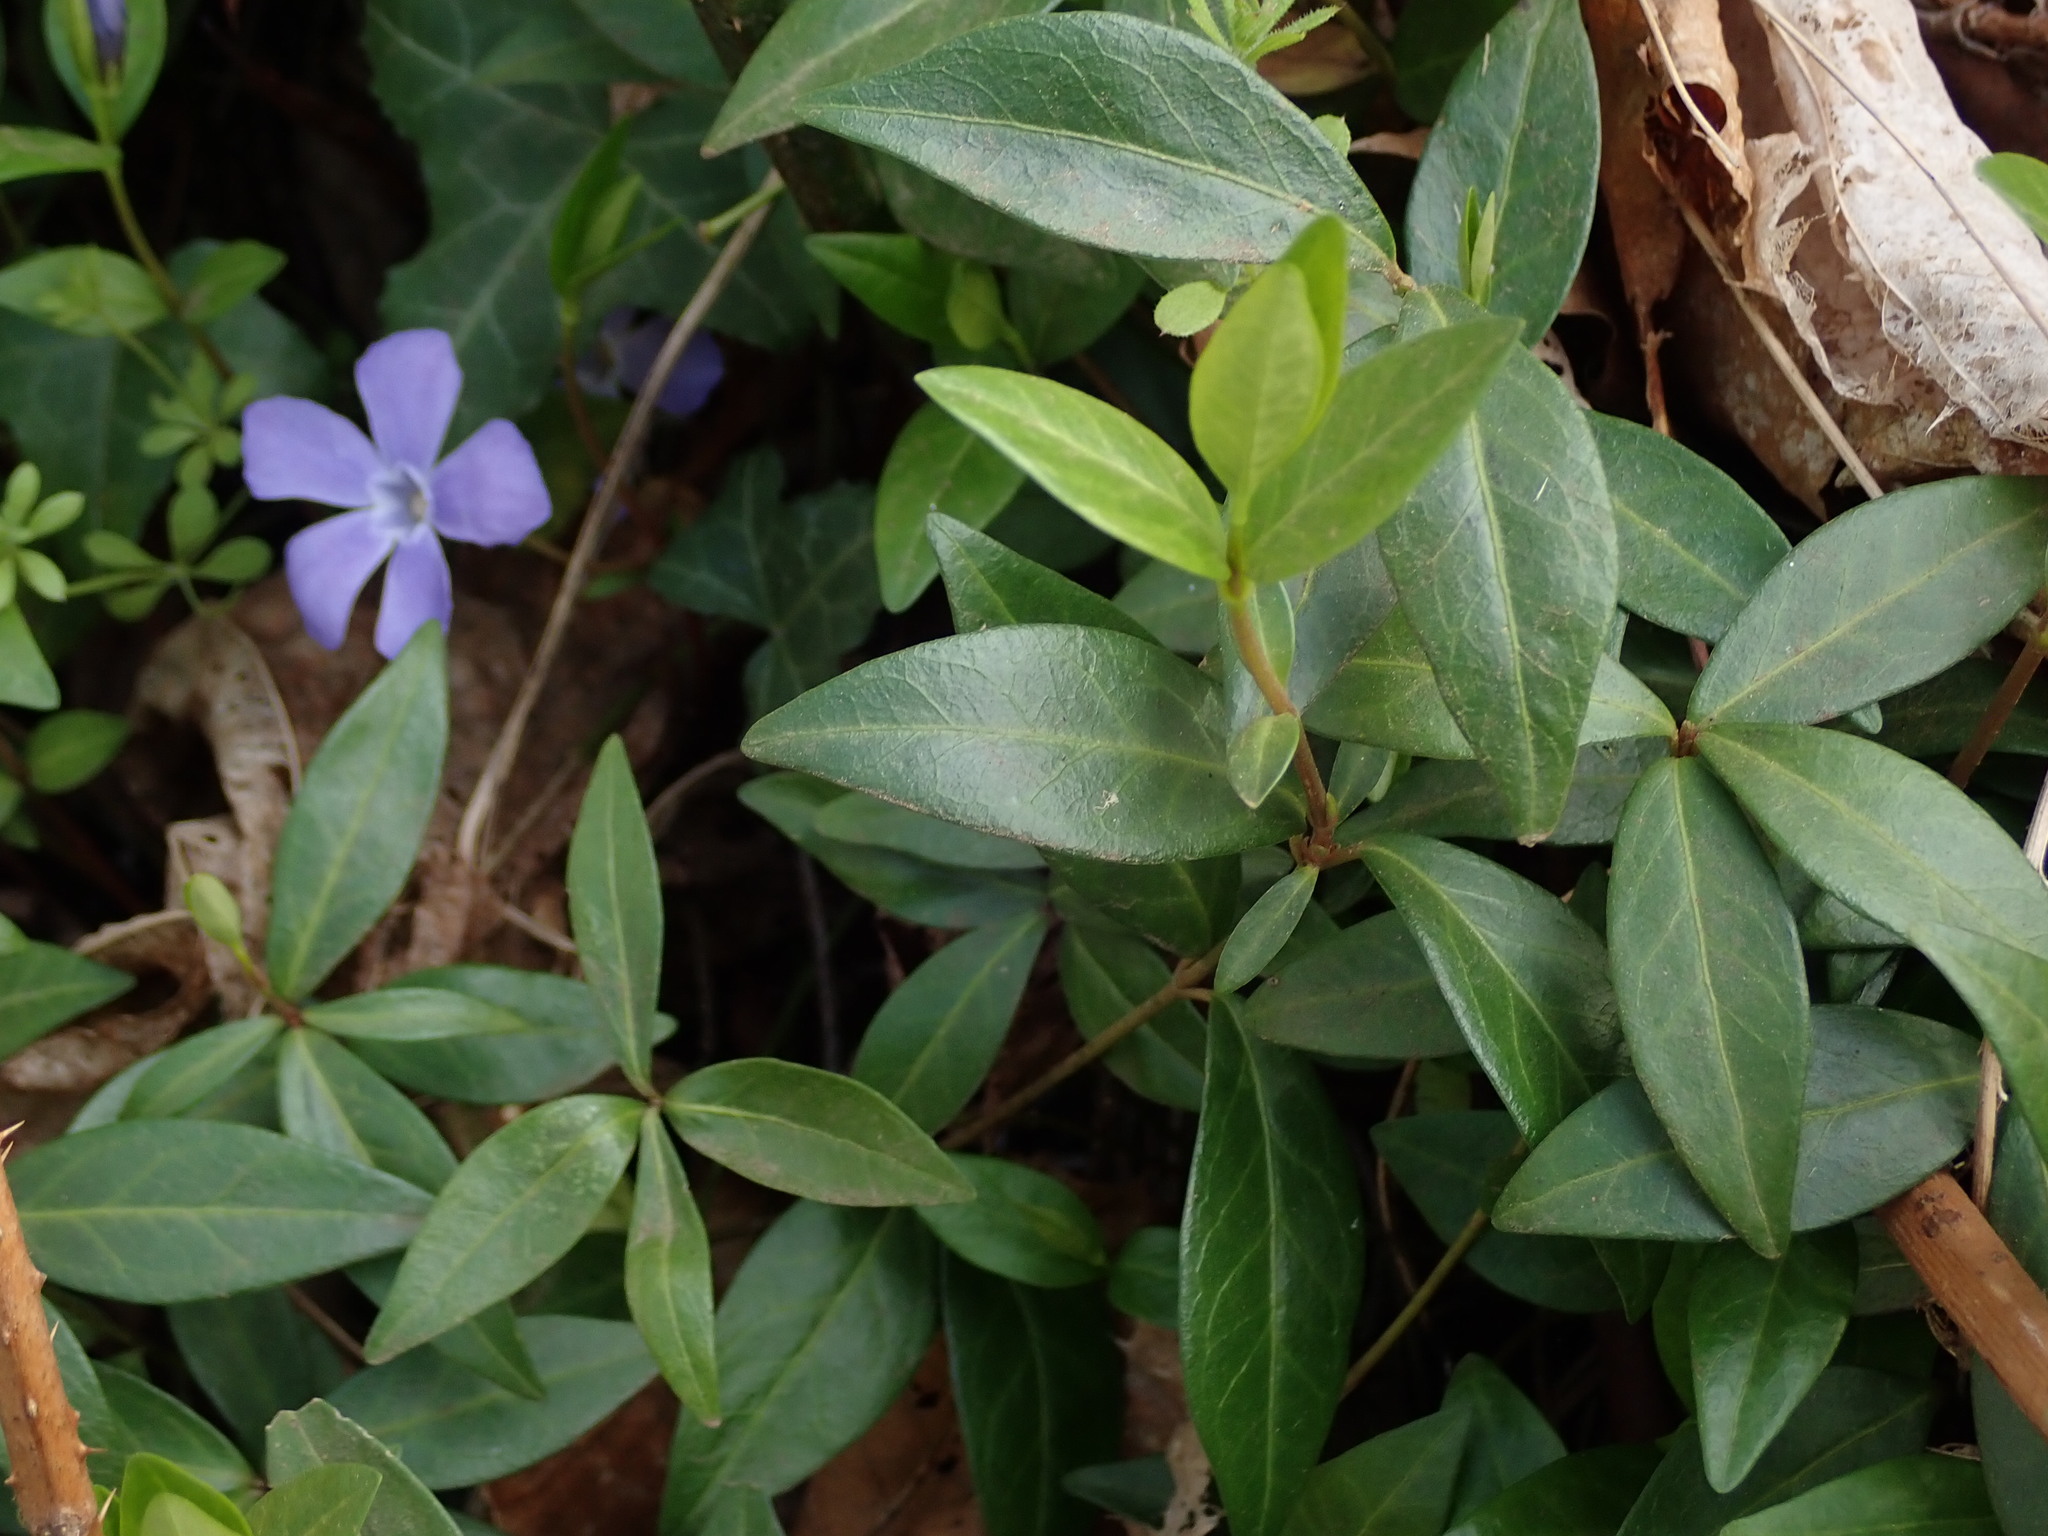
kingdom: Plantae
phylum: Tracheophyta
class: Magnoliopsida
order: Gentianales
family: Apocynaceae
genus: Vinca
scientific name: Vinca minor
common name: Lesser periwinkle
